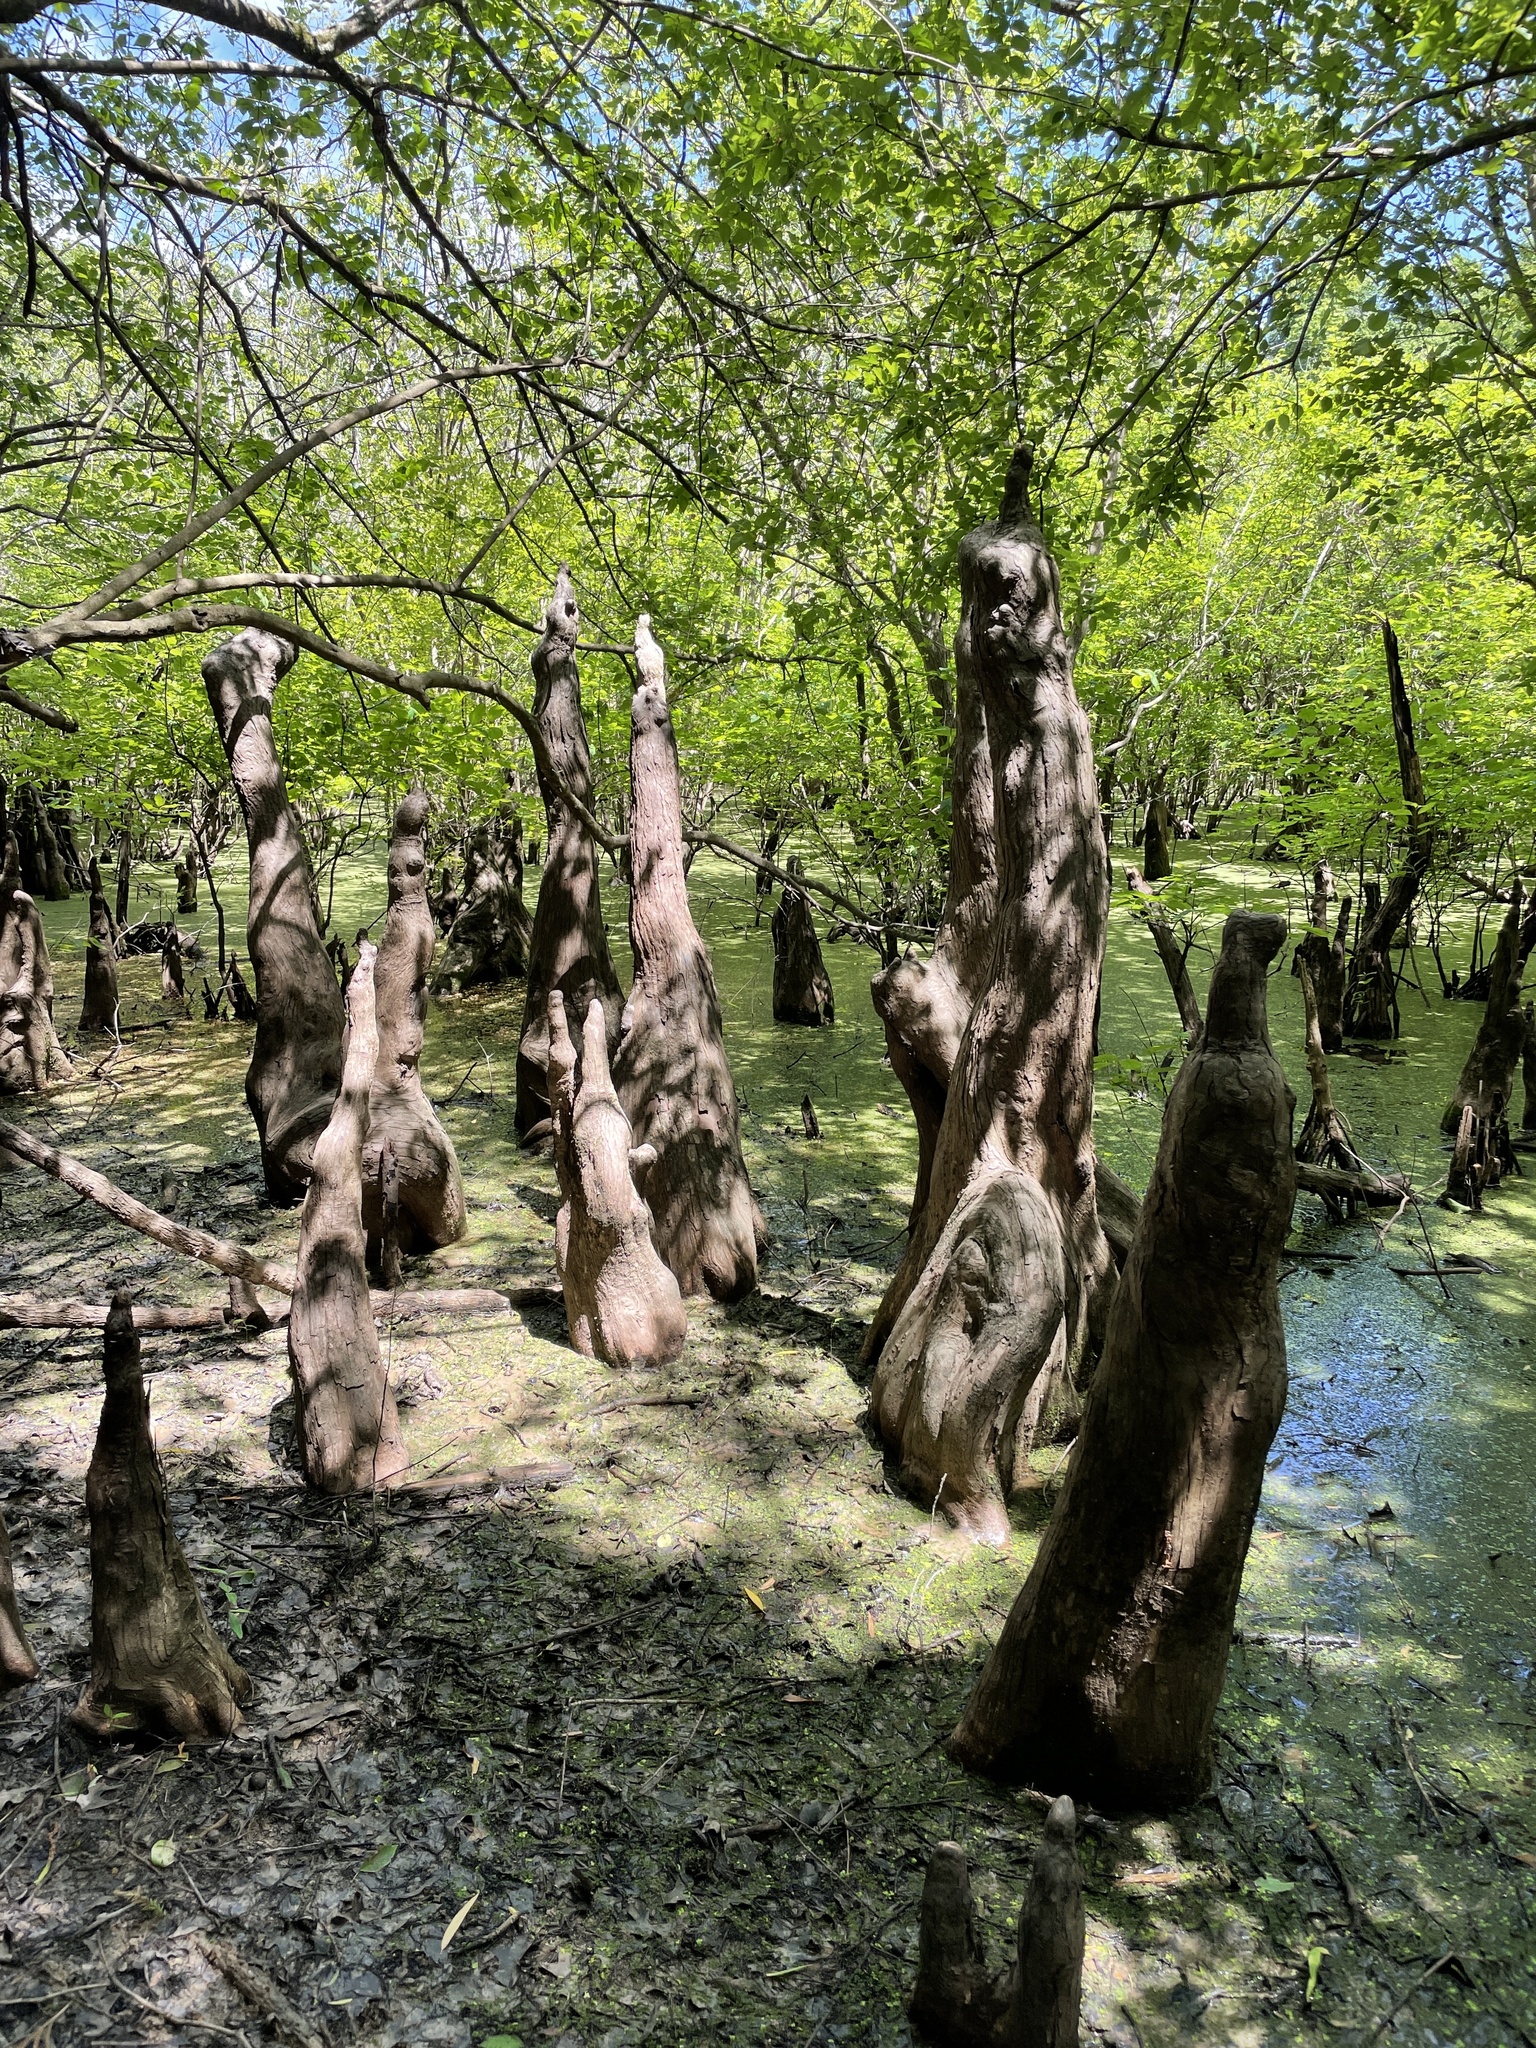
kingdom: Plantae
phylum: Tracheophyta
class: Pinopsida
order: Pinales
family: Cupressaceae
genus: Taxodium
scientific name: Taxodium distichum
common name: Bald cypress
